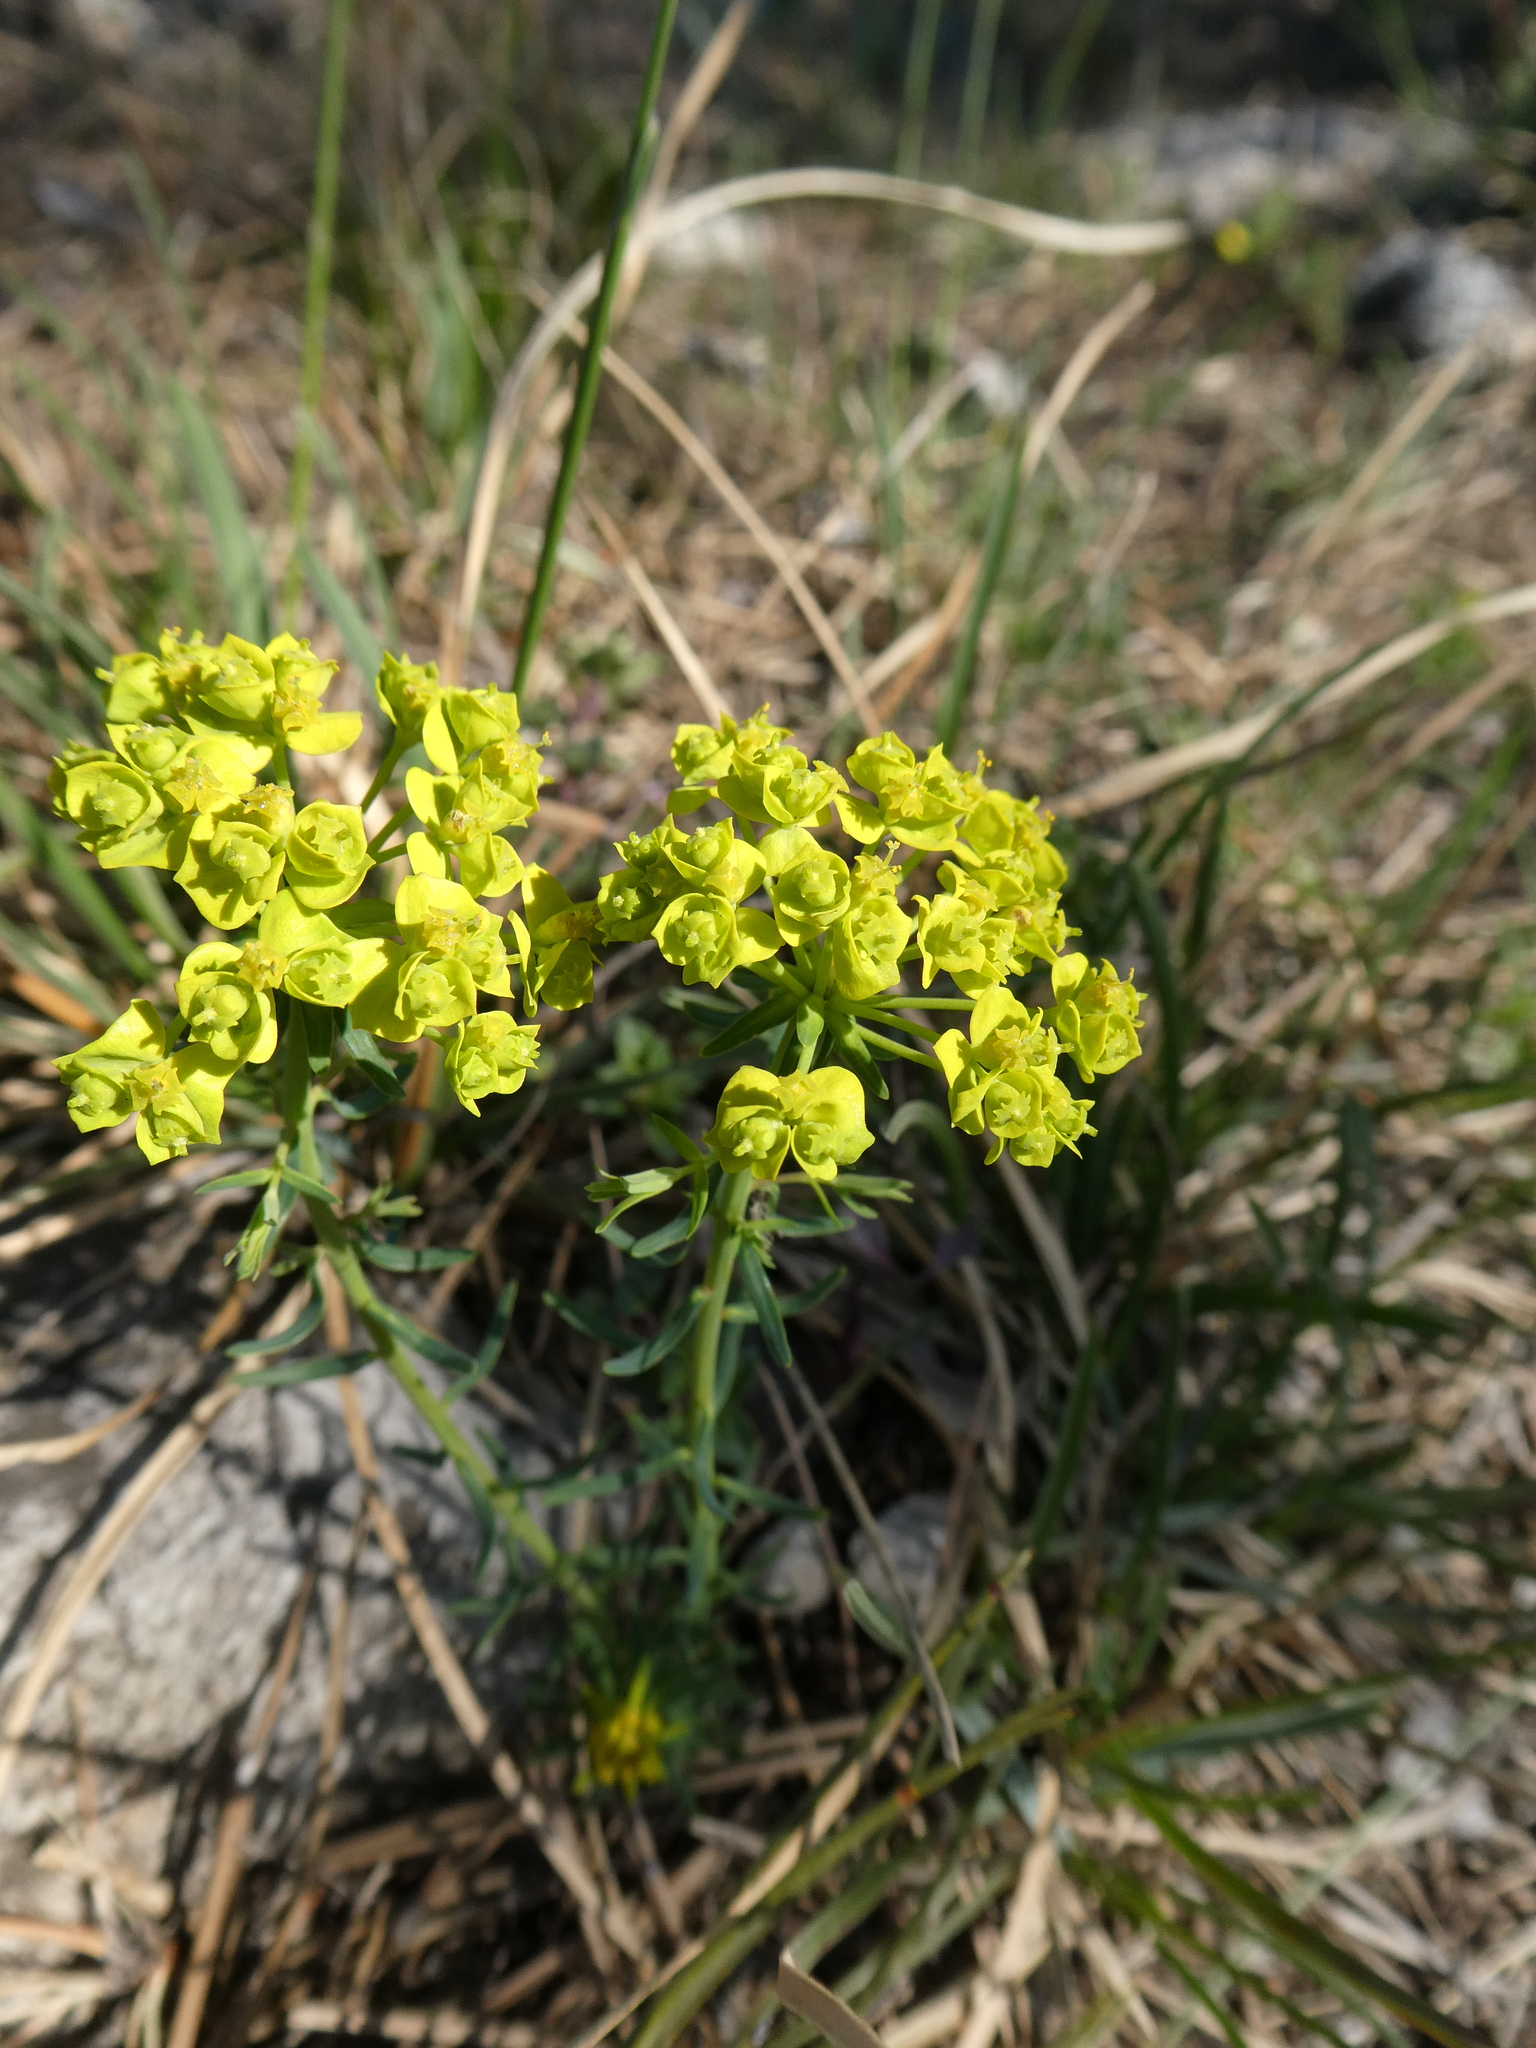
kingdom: Plantae
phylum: Tracheophyta
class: Magnoliopsida
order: Malpighiales
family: Euphorbiaceae
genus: Euphorbia
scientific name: Euphorbia cyparissias
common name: Cypress spurge
